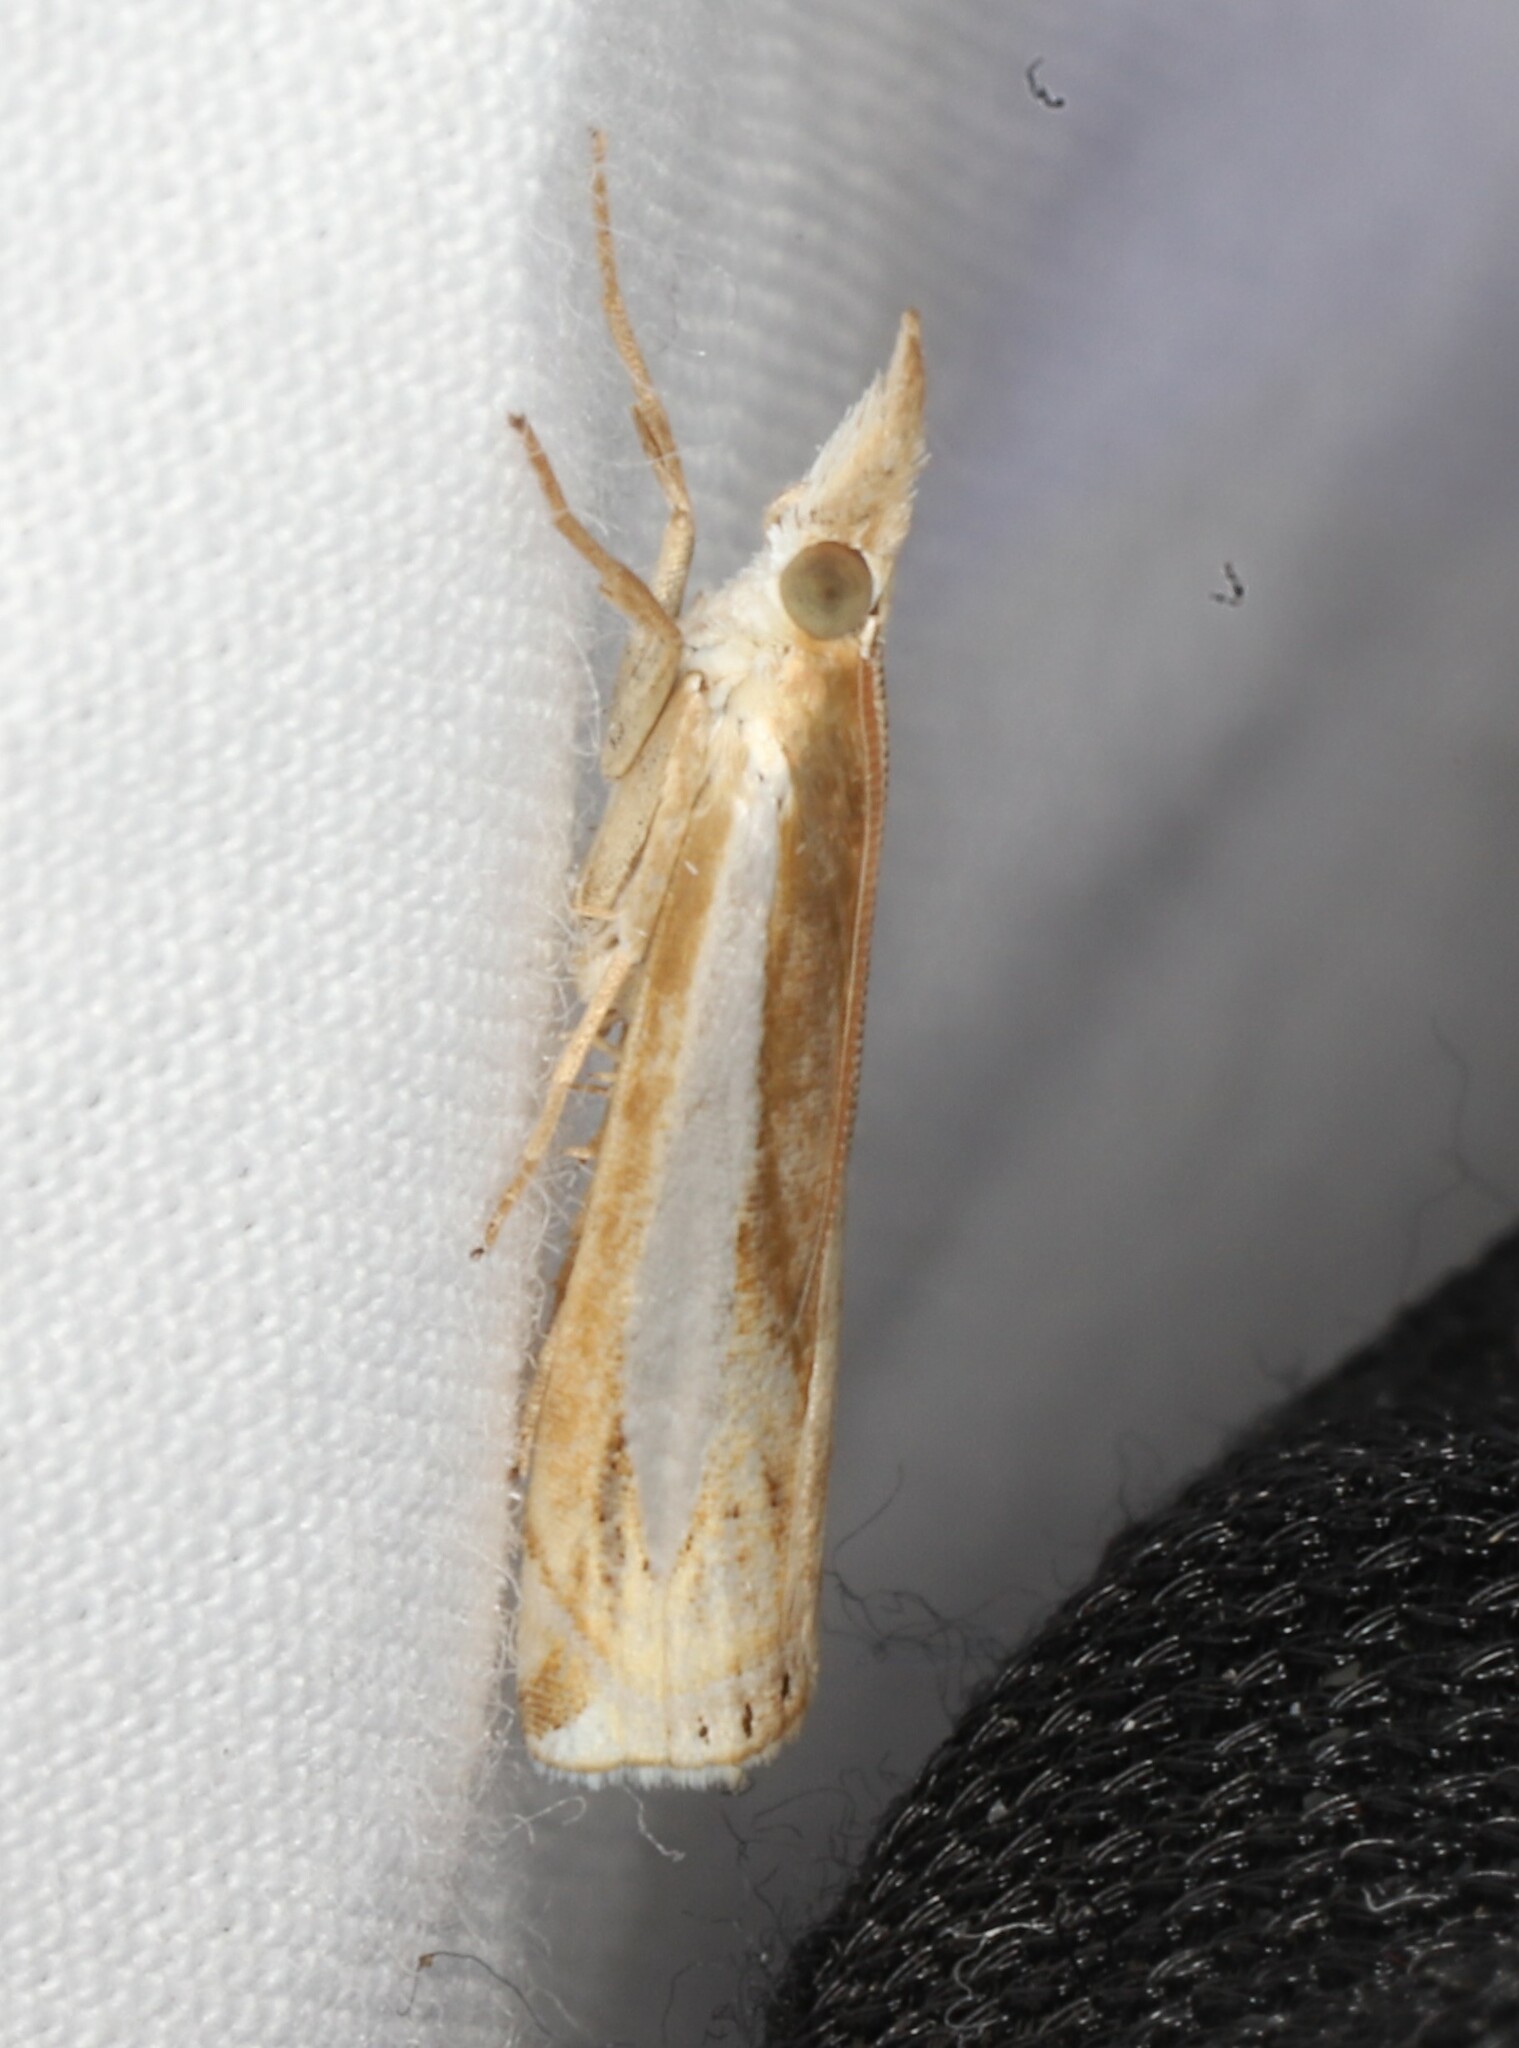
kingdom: Animalia
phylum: Arthropoda
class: Insecta
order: Lepidoptera
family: Crambidae
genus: Crambus
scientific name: Crambus praefectellus
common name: Common grass-veneer
